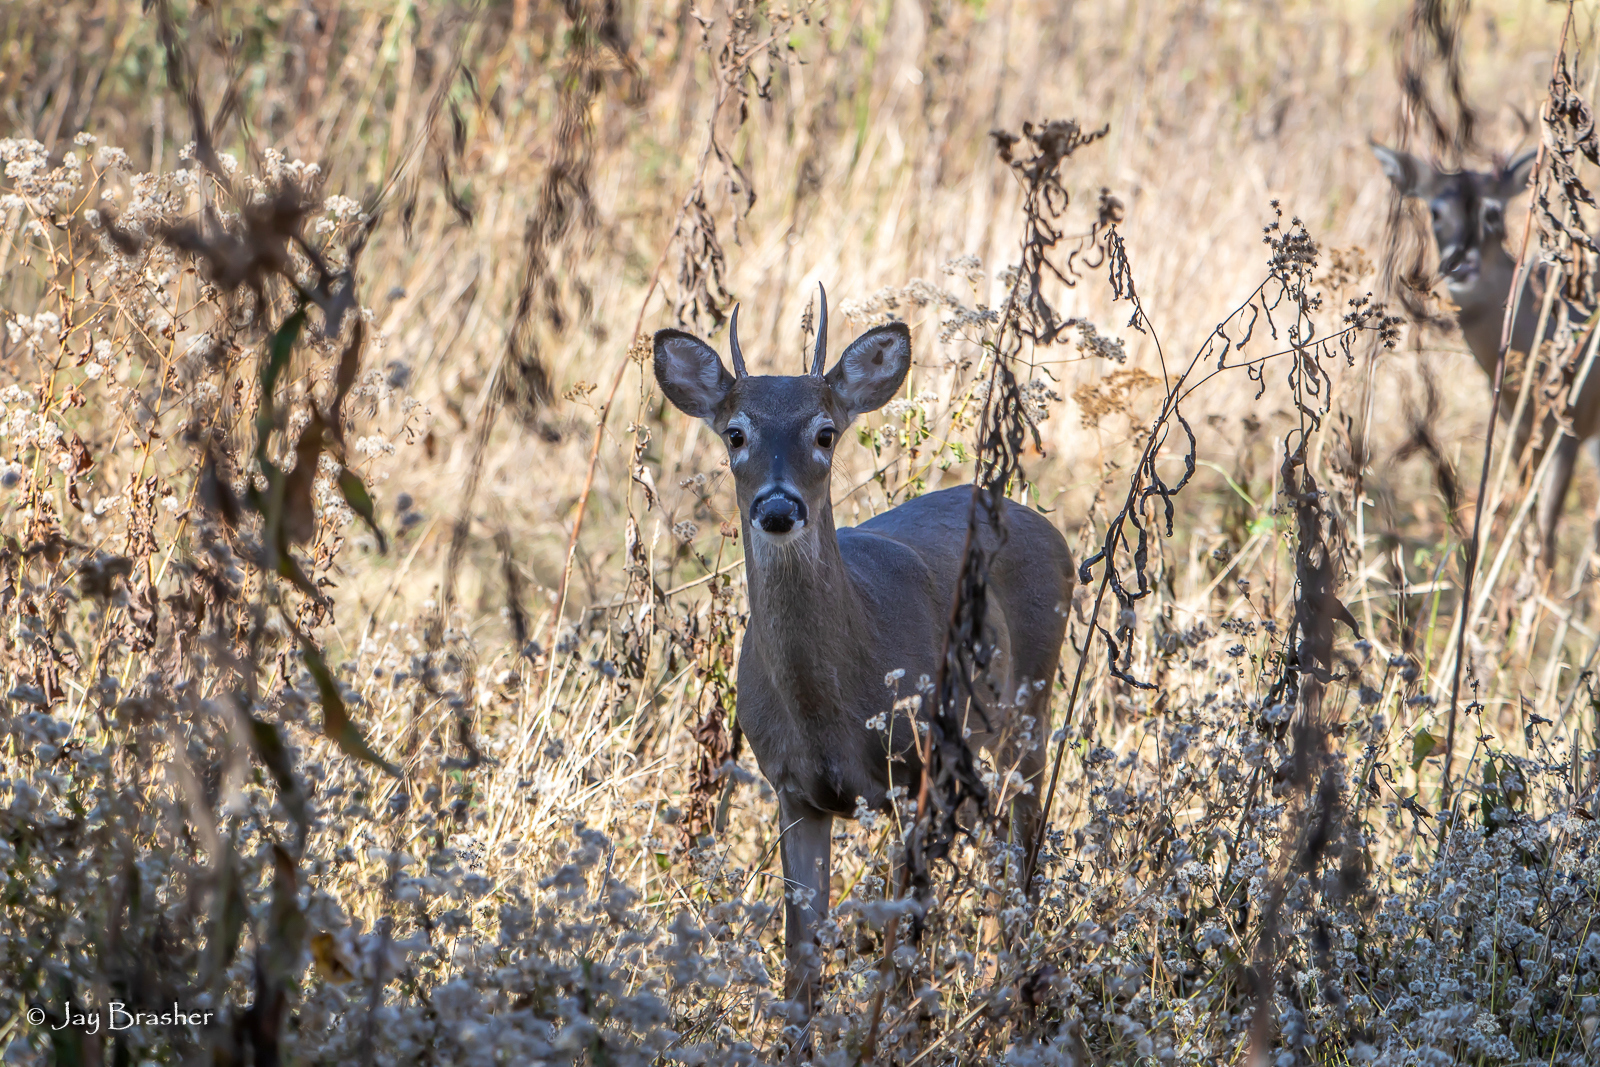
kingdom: Animalia
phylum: Chordata
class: Mammalia
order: Artiodactyla
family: Cervidae
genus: Odocoileus
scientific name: Odocoileus virginianus
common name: White-tailed deer
